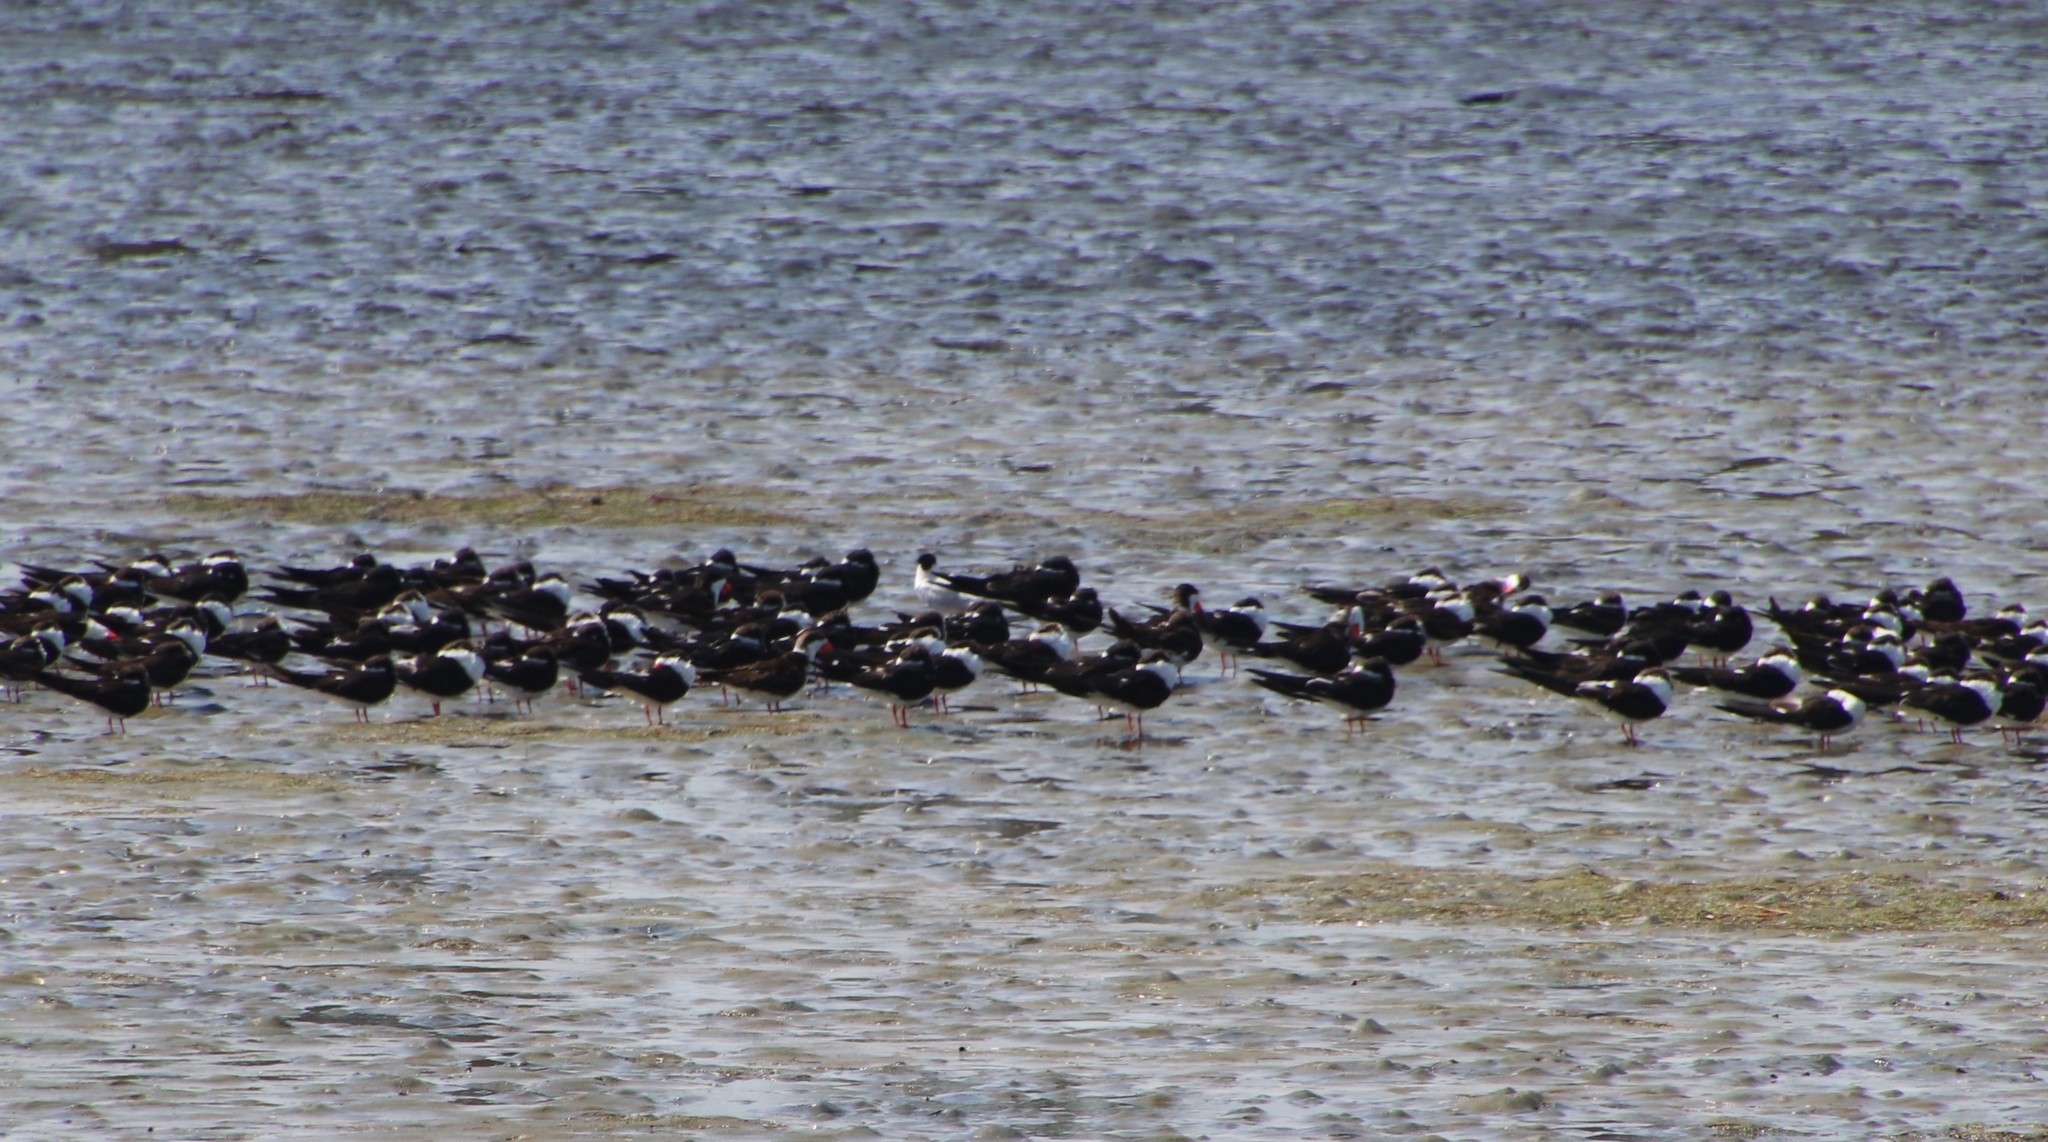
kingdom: Animalia
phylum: Chordata
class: Aves
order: Charadriiformes
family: Laridae
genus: Rynchops
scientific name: Rynchops niger
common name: Black skimmer
